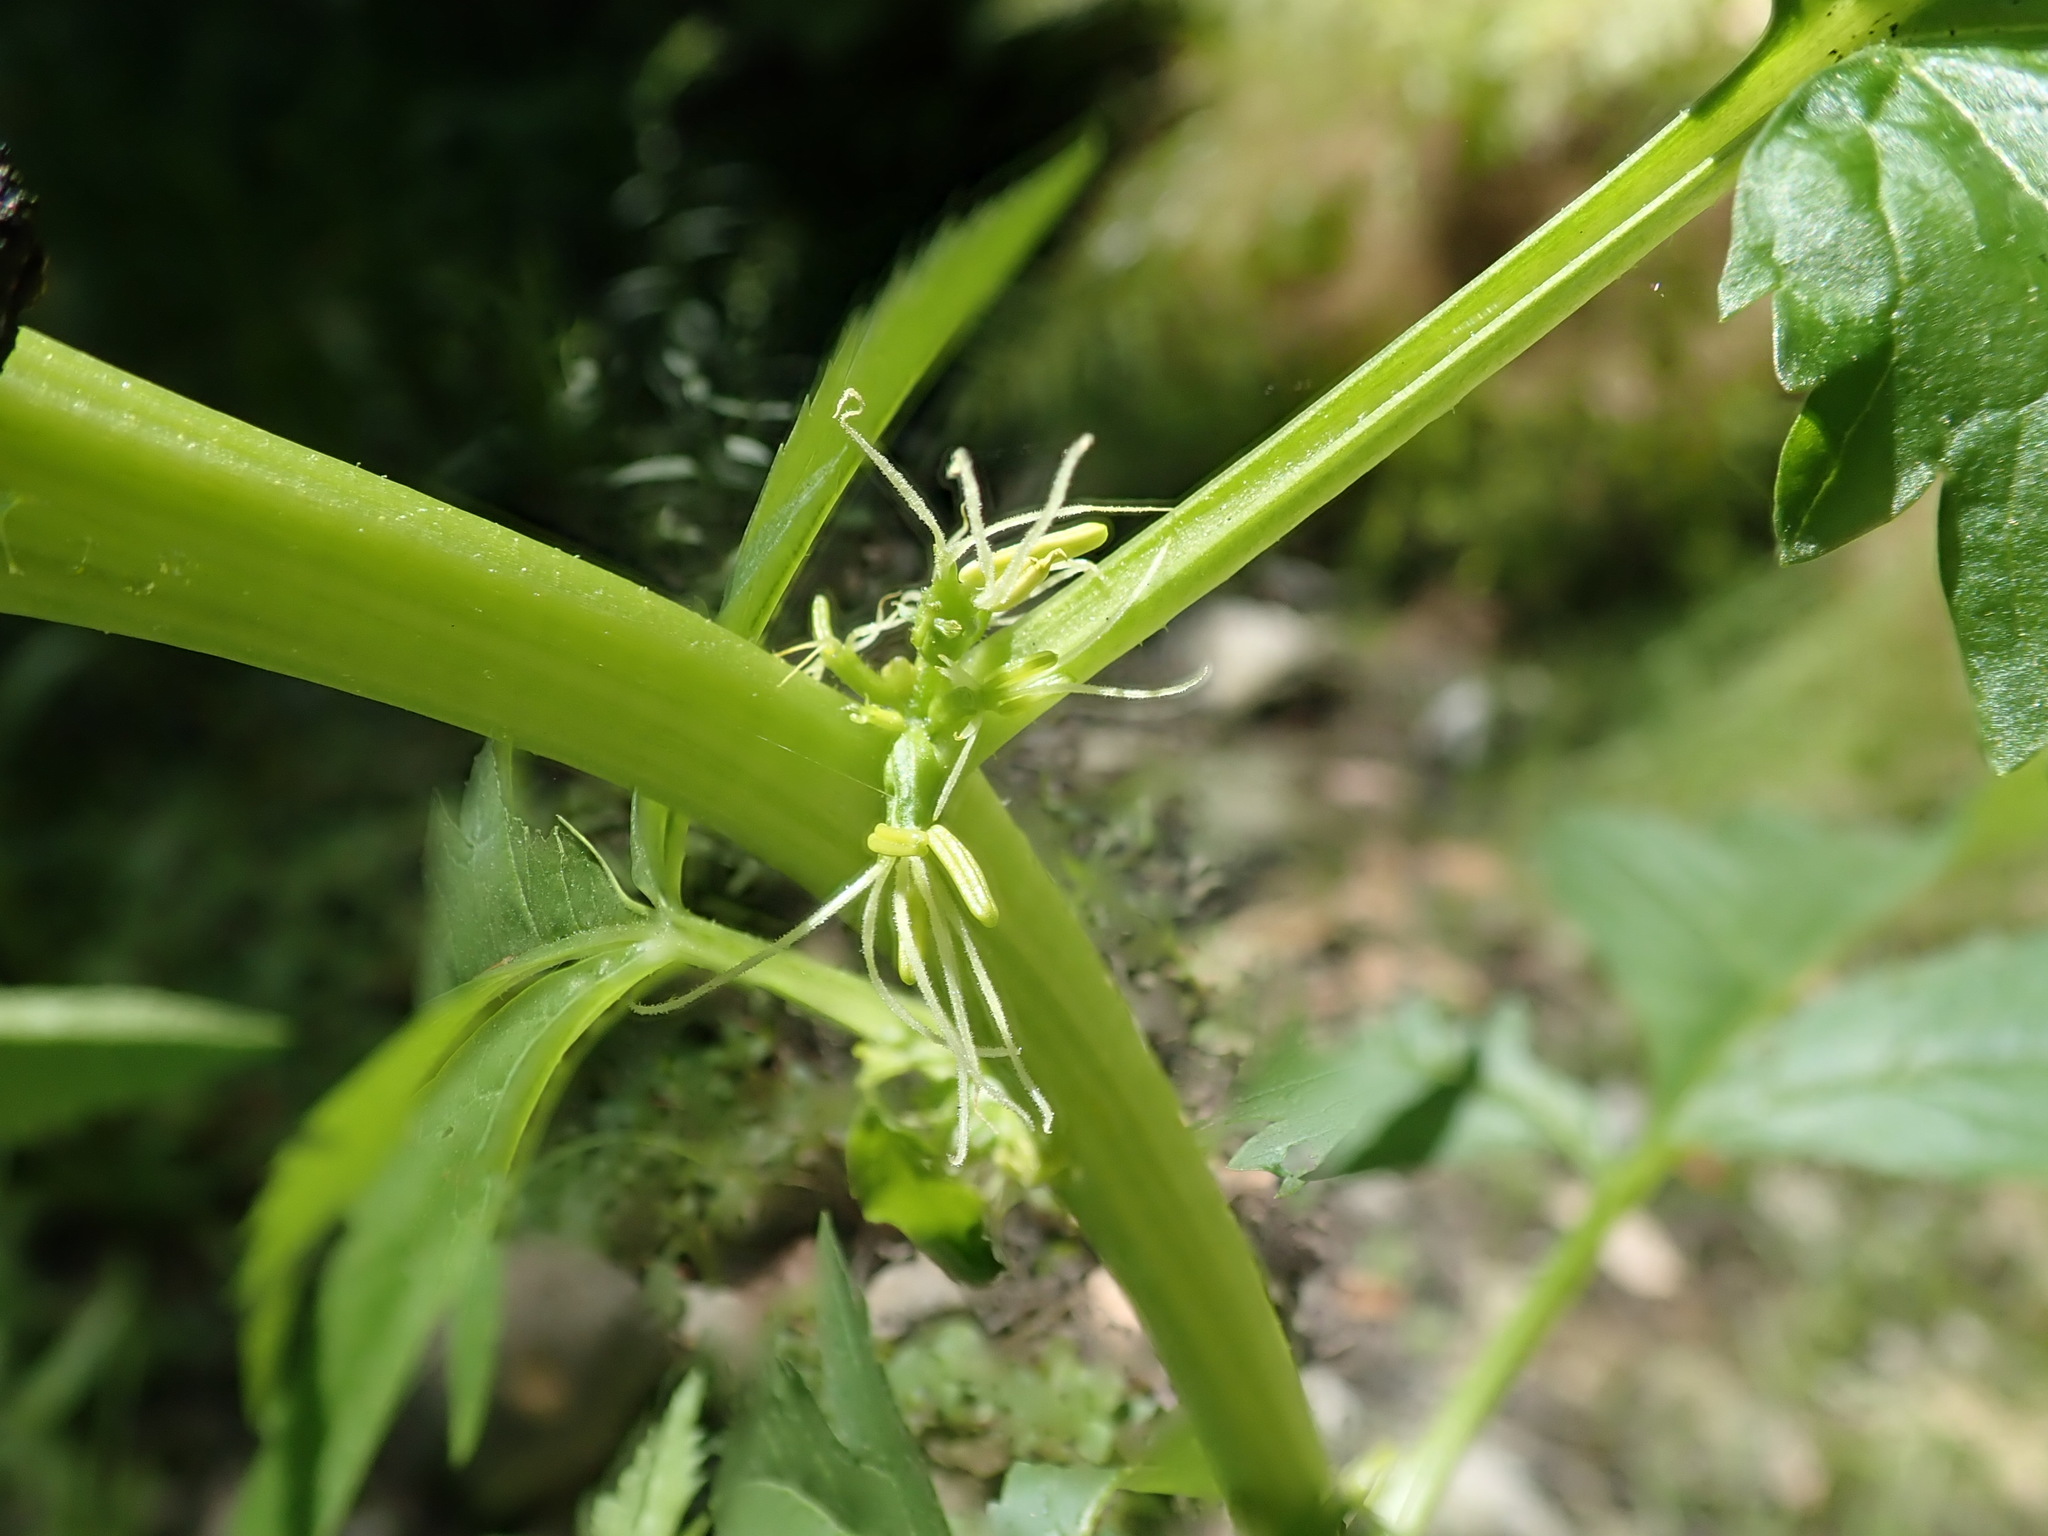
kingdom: Plantae
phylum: Tracheophyta
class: Magnoliopsida
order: Cucurbitales
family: Datiscaceae
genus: Datisca
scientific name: Datisca glomerata
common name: Durango-root
